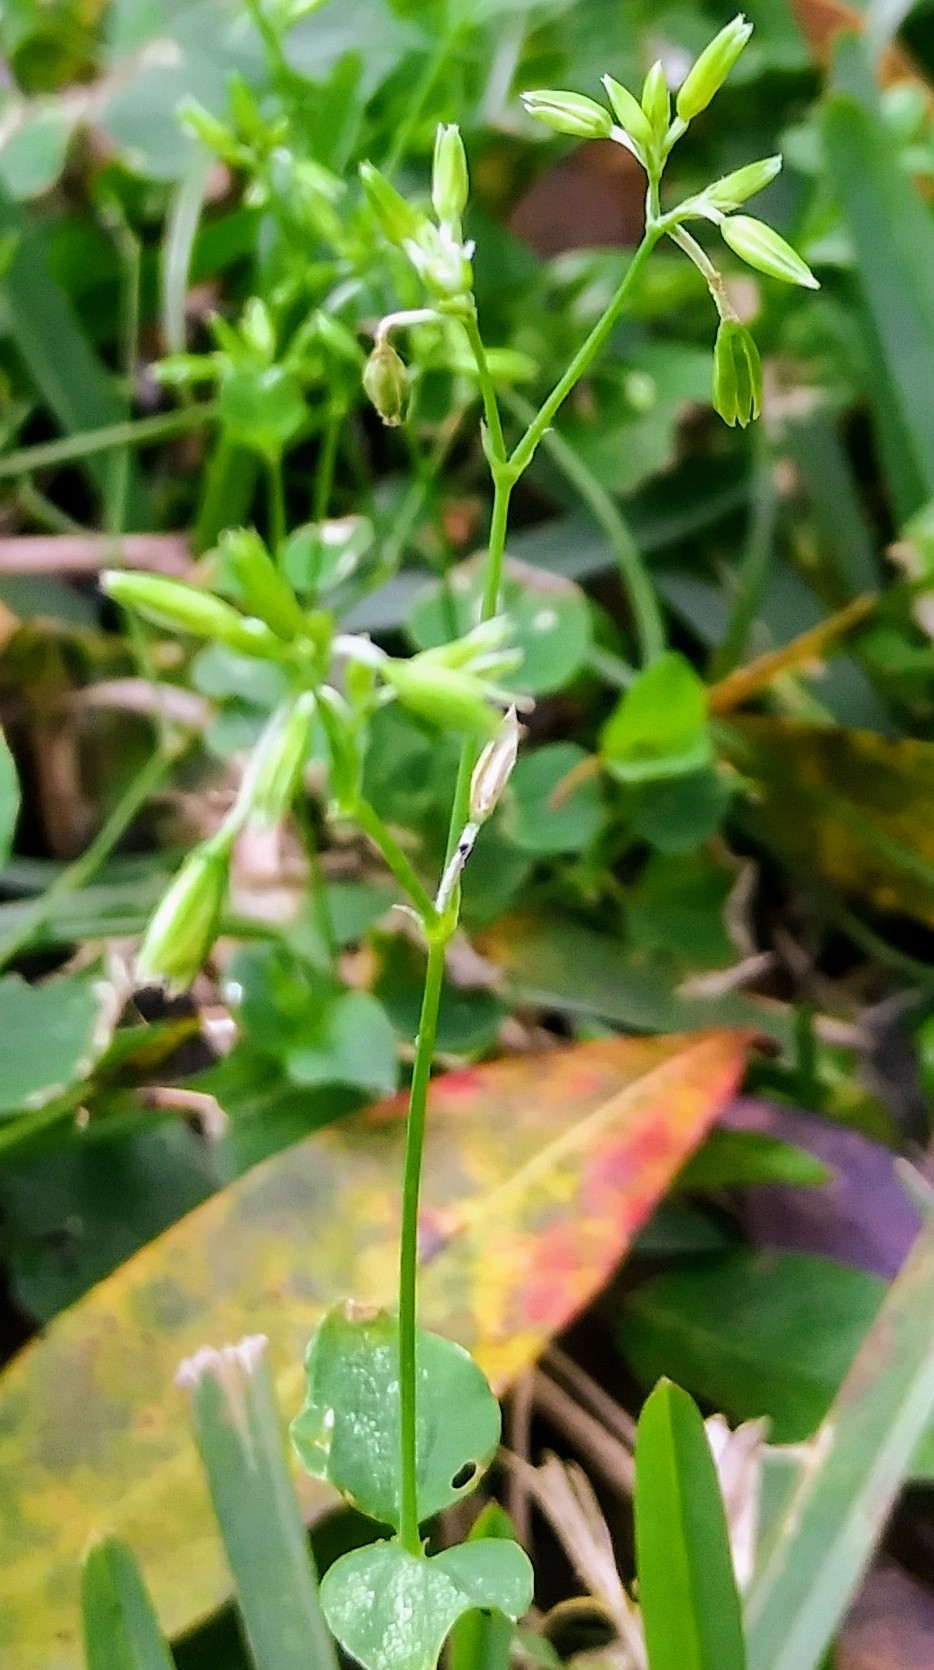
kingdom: Plantae
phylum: Tracheophyta
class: Magnoliopsida
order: Caryophyllales
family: Caryophyllaceae
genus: Drymaria
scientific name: Drymaria cordata
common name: Whitesnow
